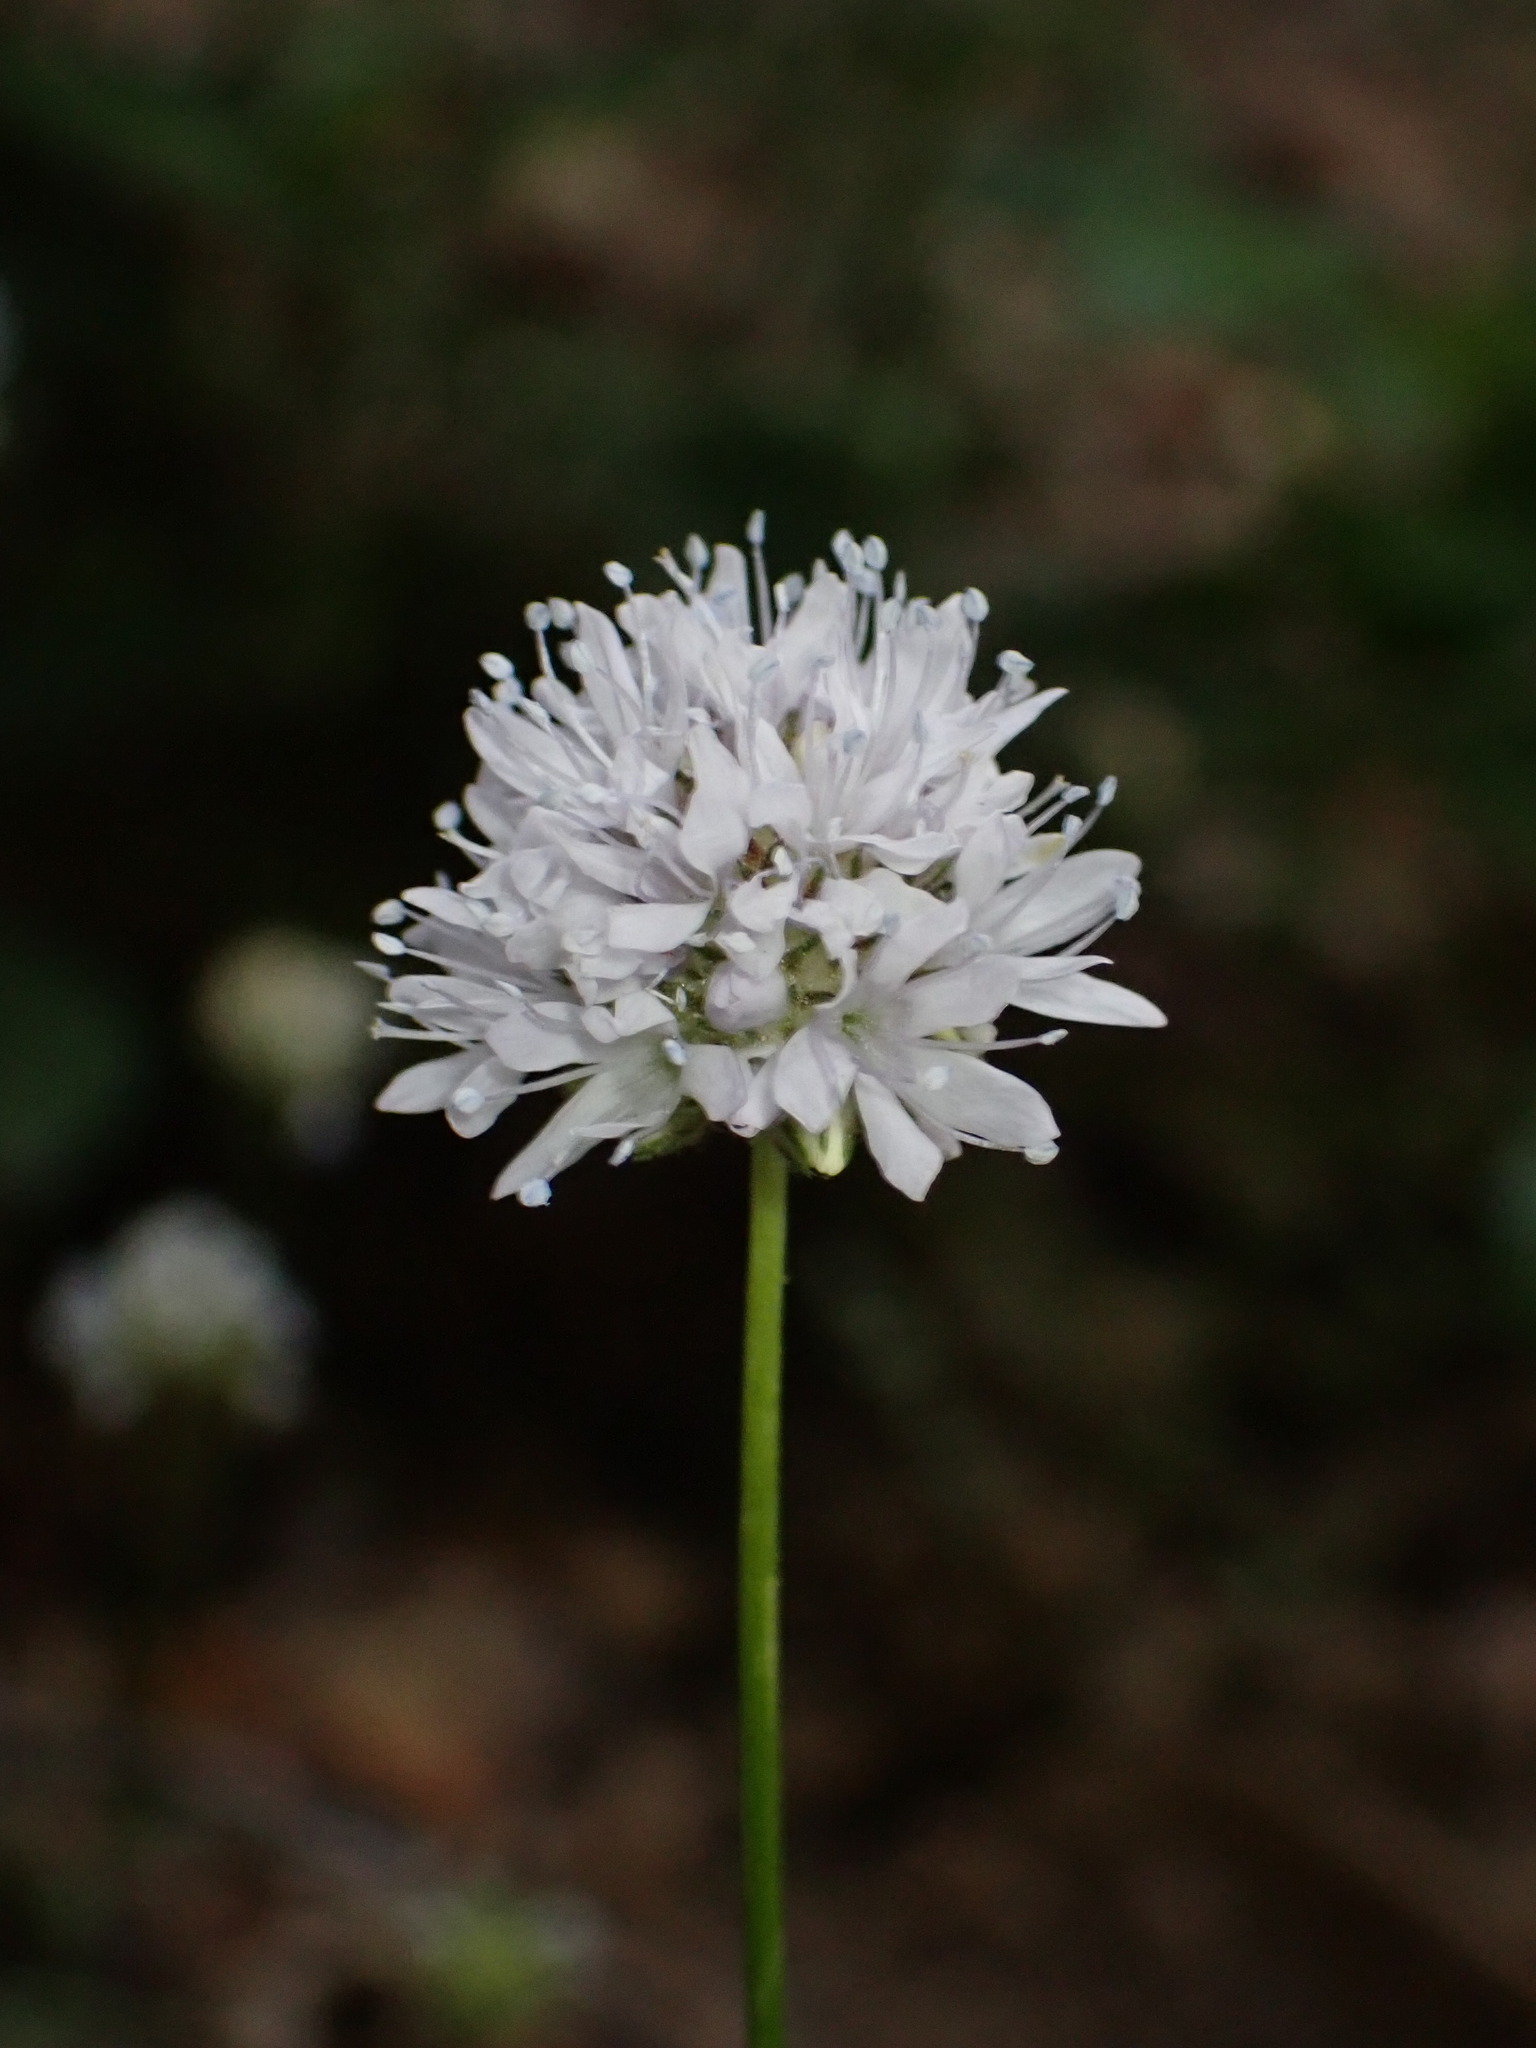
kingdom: Plantae
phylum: Tracheophyta
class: Magnoliopsida
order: Ericales
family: Polemoniaceae
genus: Gilia
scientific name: Gilia capitata
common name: Bluehead gilia
